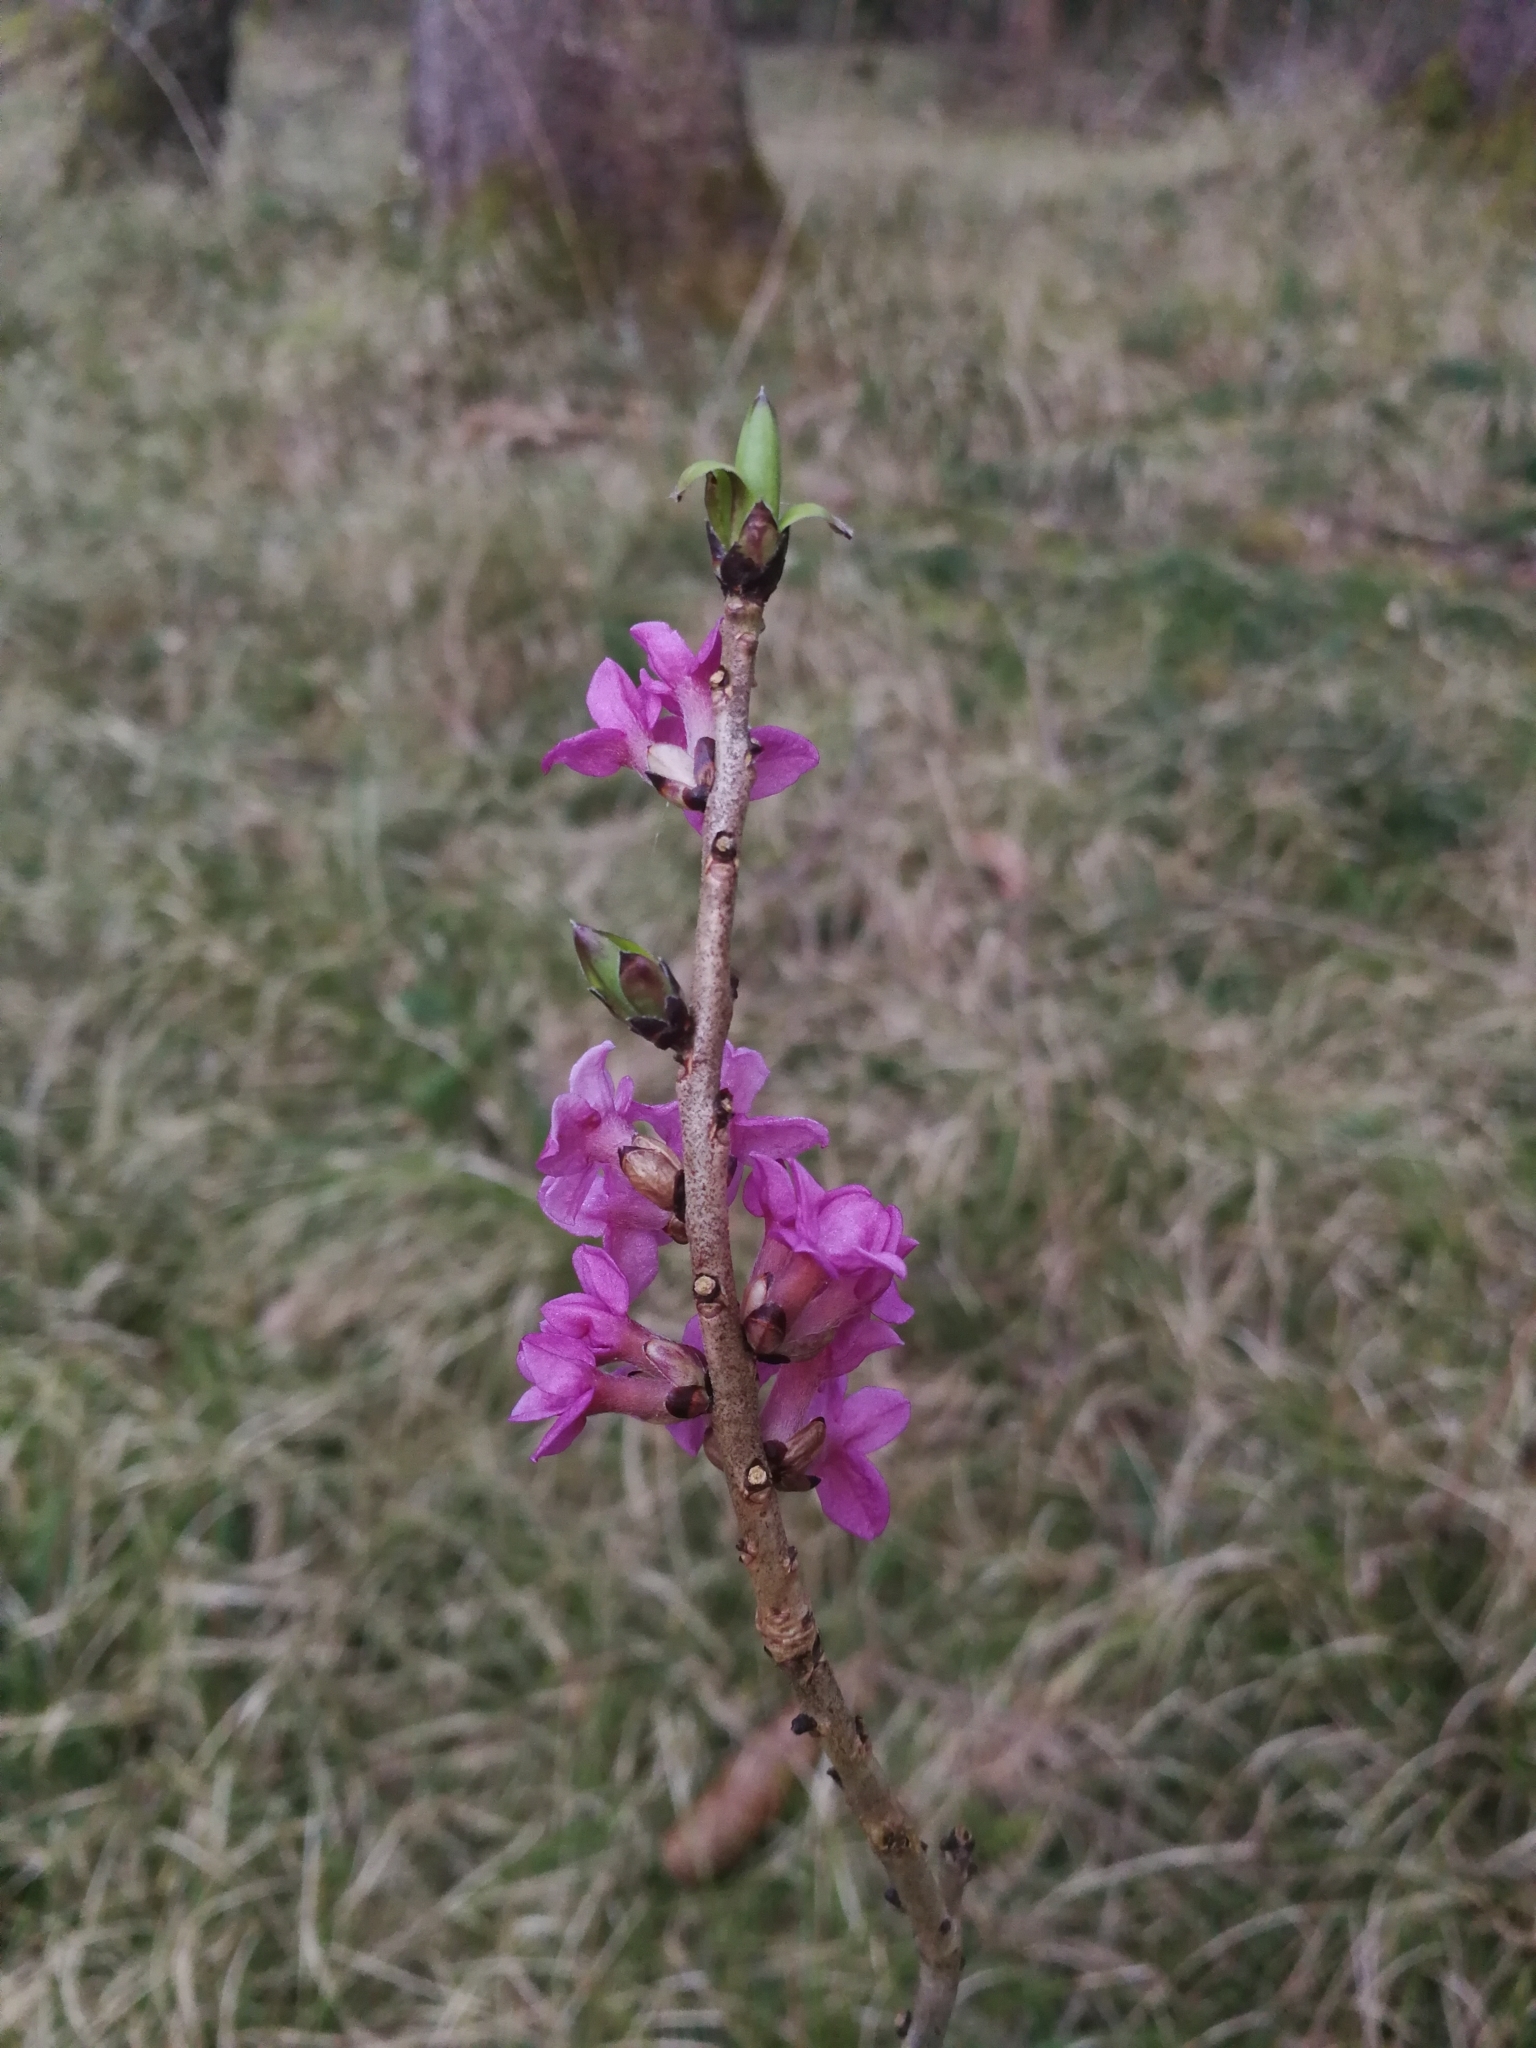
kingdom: Plantae
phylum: Tracheophyta
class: Magnoliopsida
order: Malvales
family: Thymelaeaceae
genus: Daphne
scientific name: Daphne mezereum
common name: Mezereon
